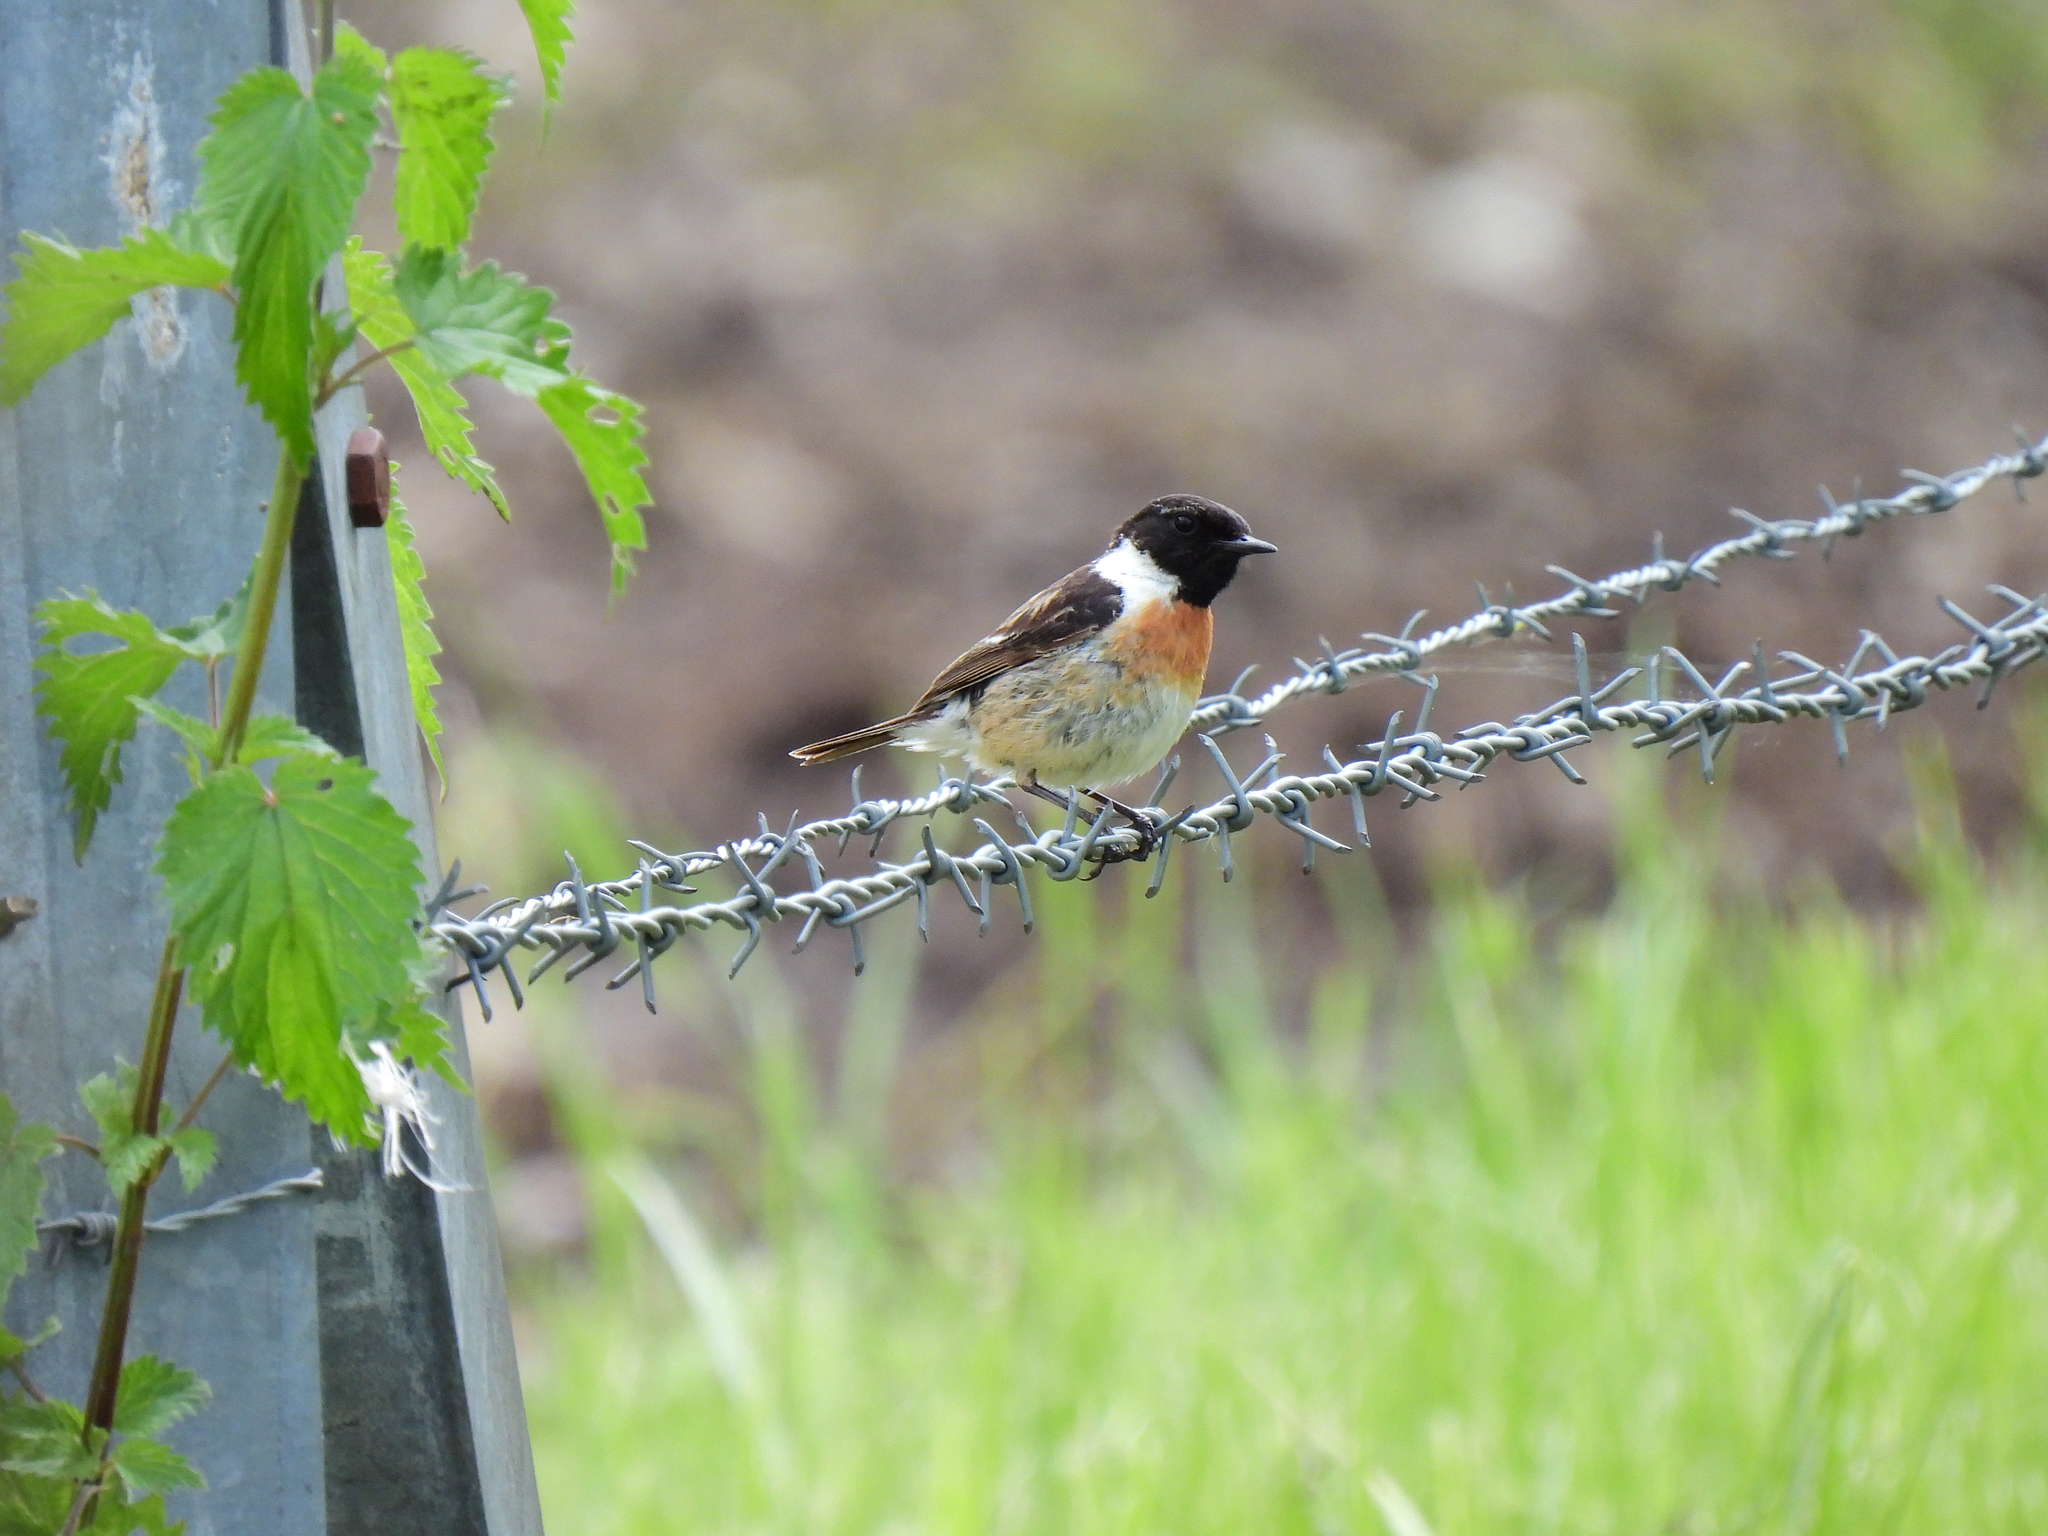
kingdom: Animalia
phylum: Chordata
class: Aves
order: Passeriformes
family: Muscicapidae
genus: Saxicola
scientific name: Saxicola rubicola
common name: European stonechat
